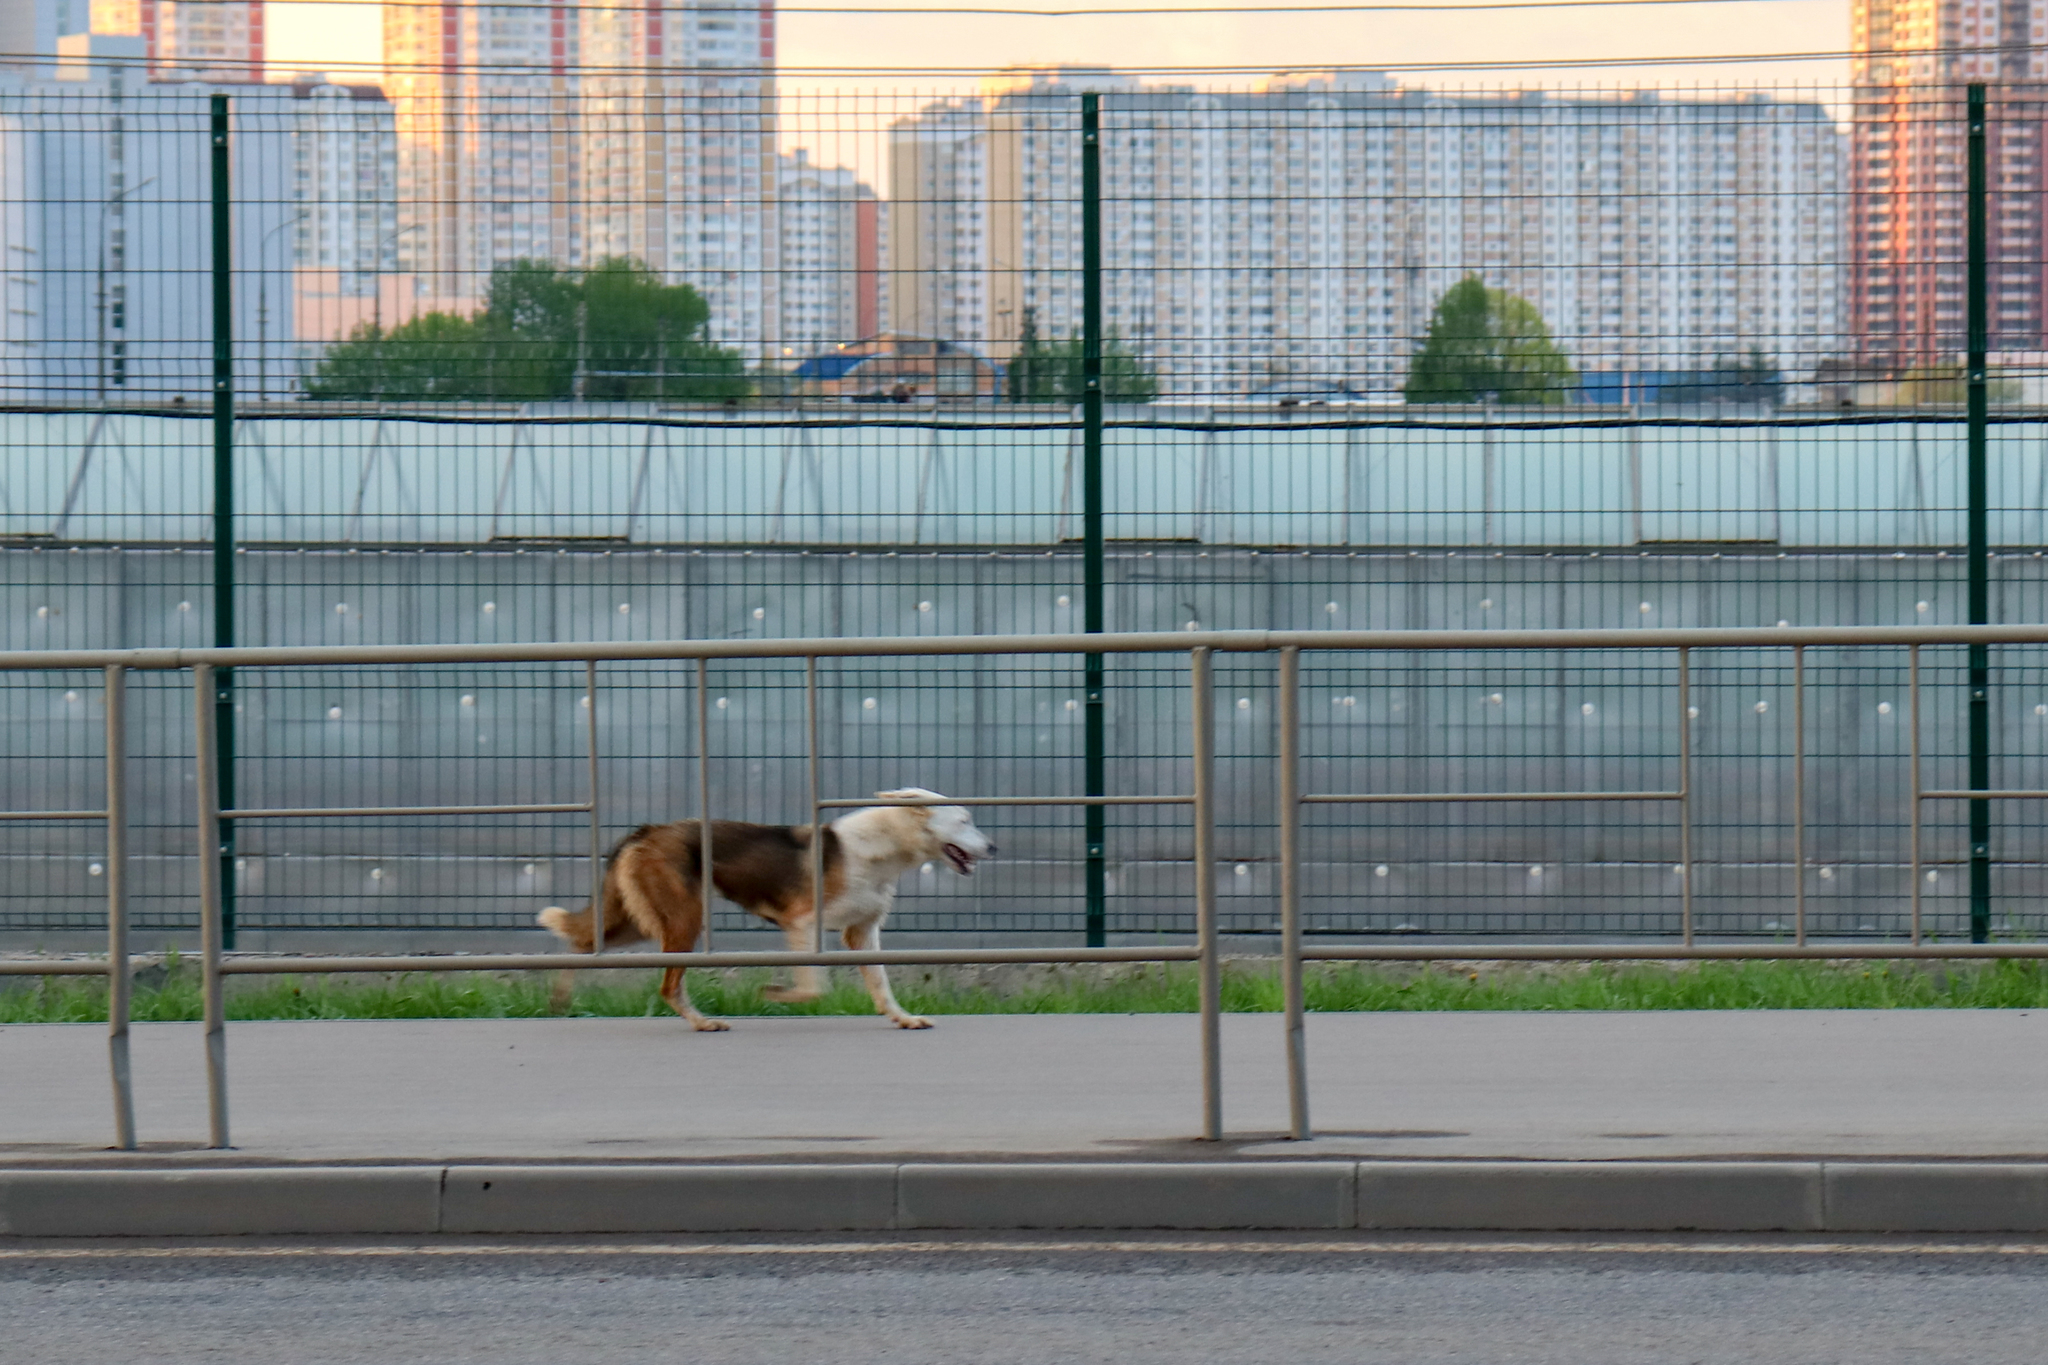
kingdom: Animalia
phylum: Chordata
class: Mammalia
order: Carnivora
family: Canidae
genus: Canis
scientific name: Canis lupus
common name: Gray wolf
